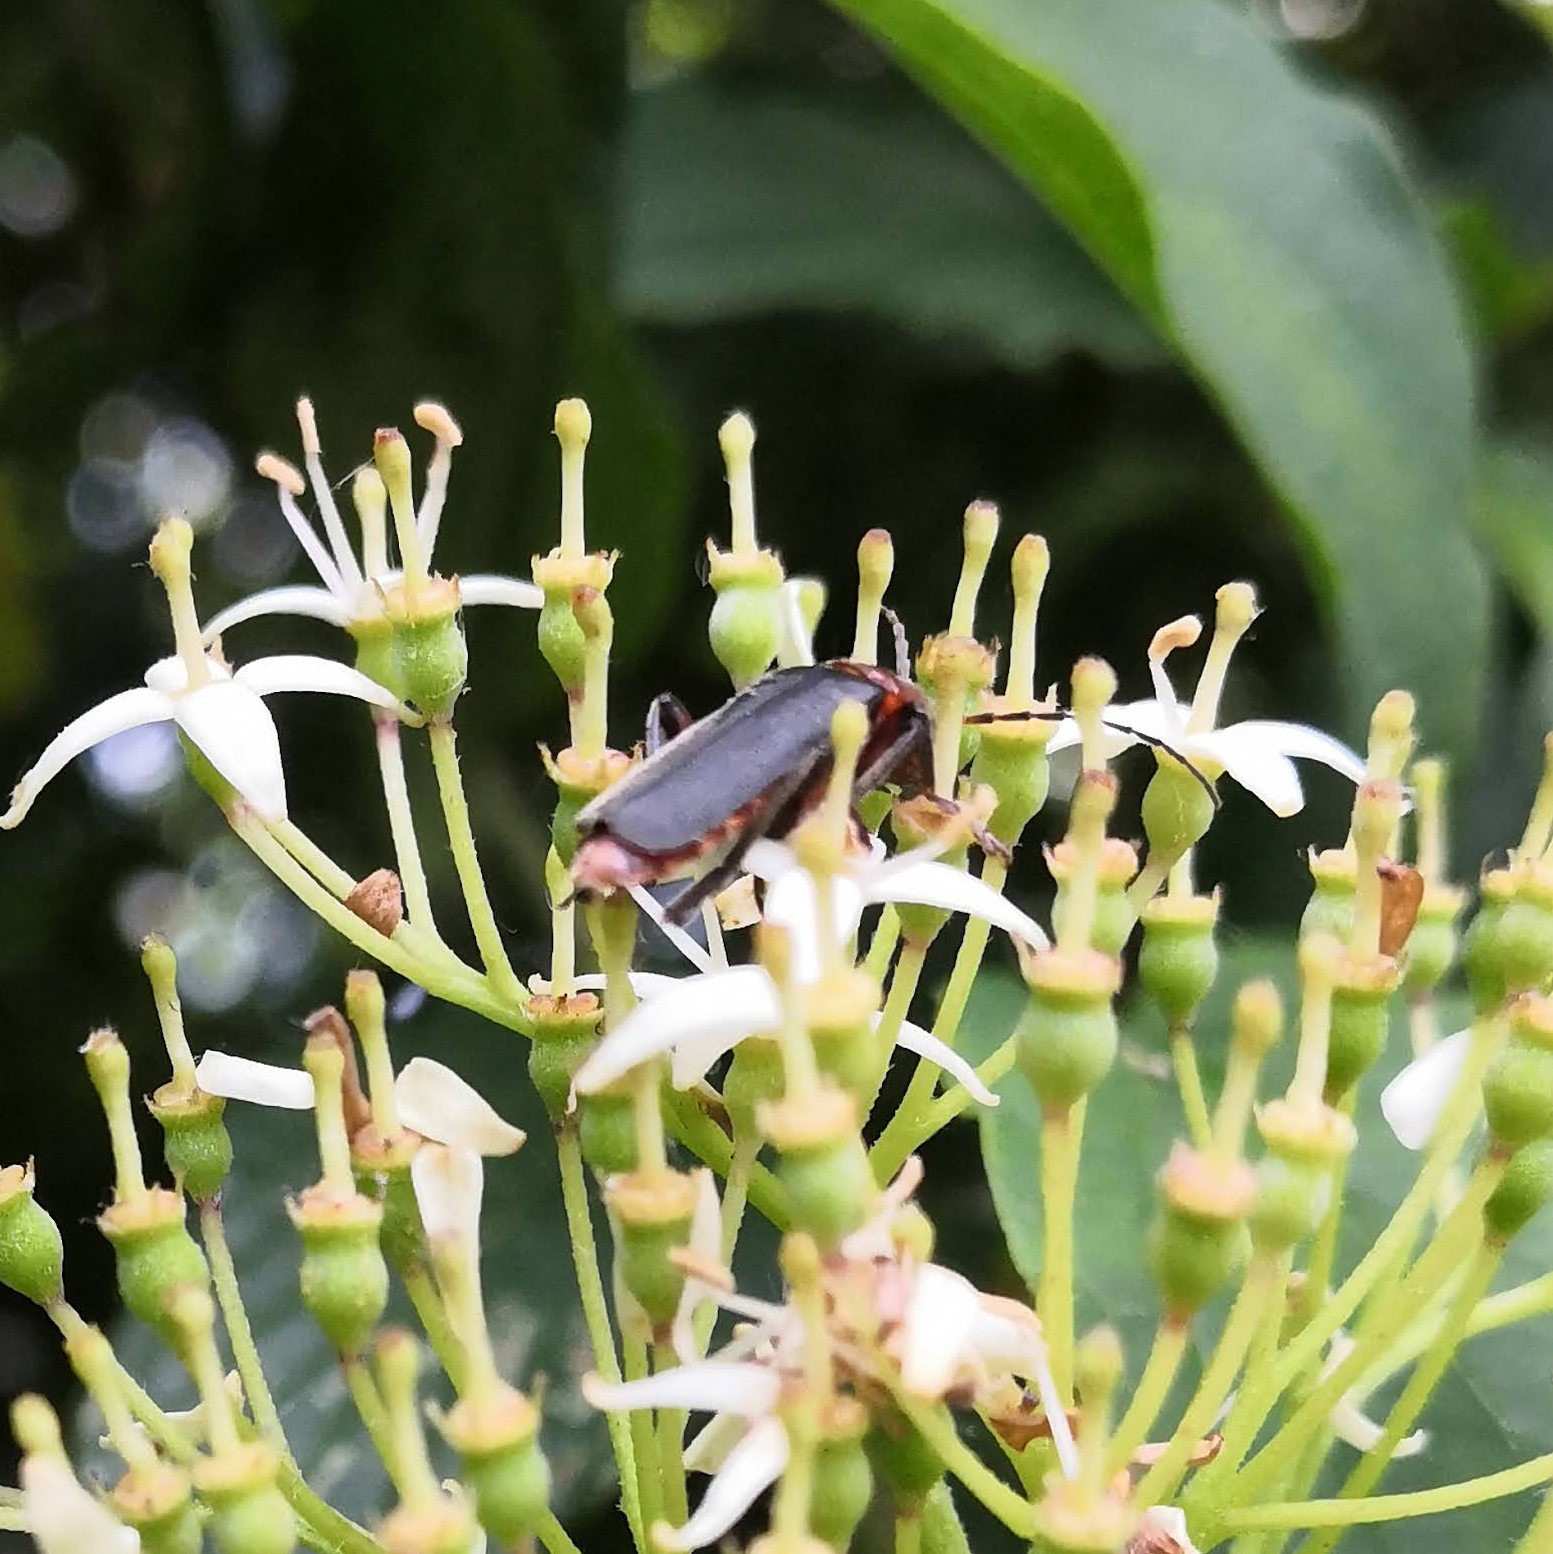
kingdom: Animalia
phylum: Arthropoda
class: Insecta
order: Coleoptera
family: Cantharidae
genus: Cantharis
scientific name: Cantharis rustica
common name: Soldier beetle
